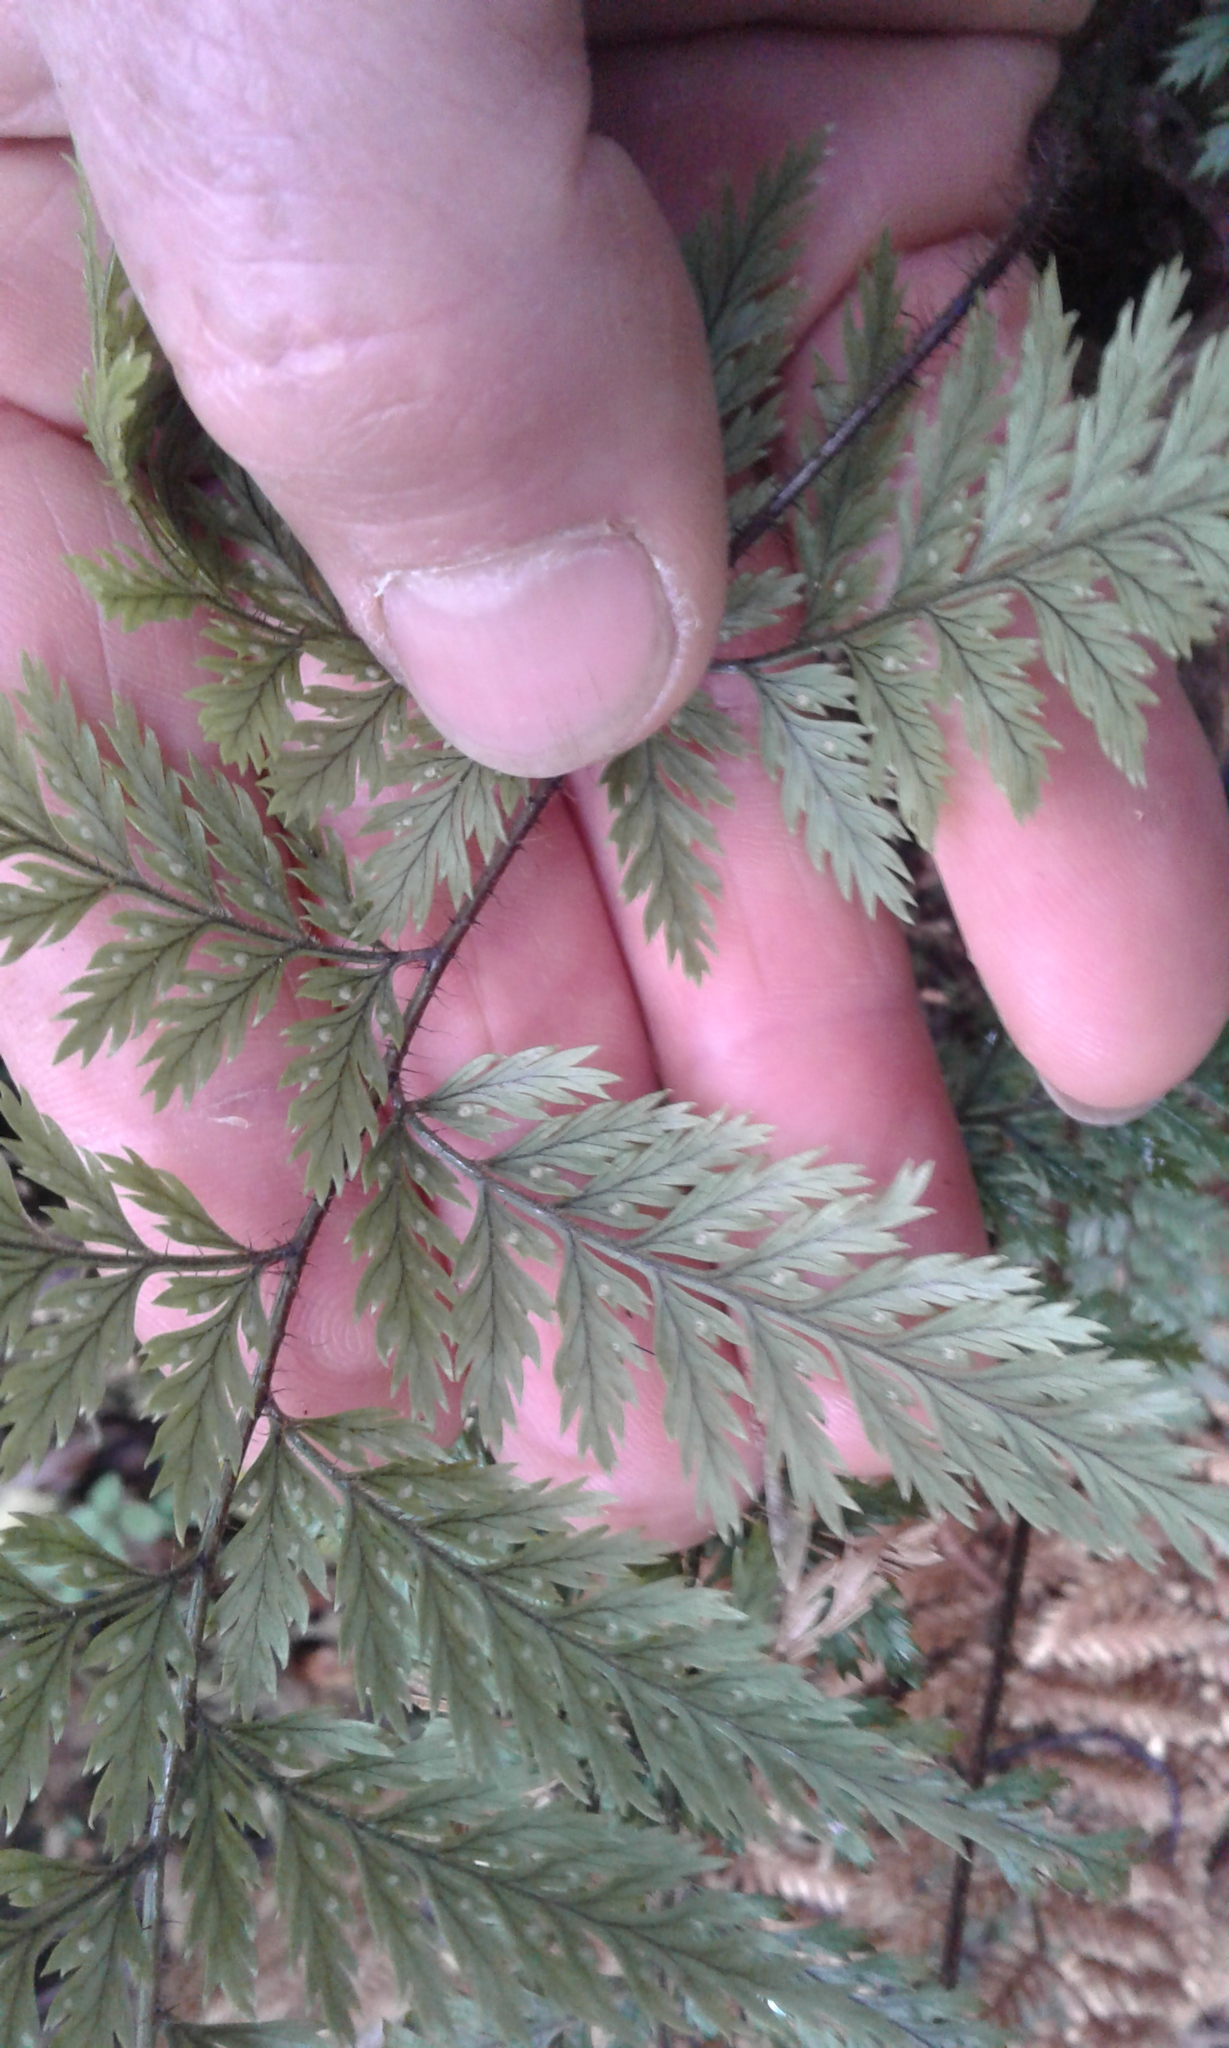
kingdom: Plantae
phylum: Tracheophyta
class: Polypodiopsida
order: Polypodiales
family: Dryopteridaceae
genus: Lastreopsis
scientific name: Lastreopsis hispida
